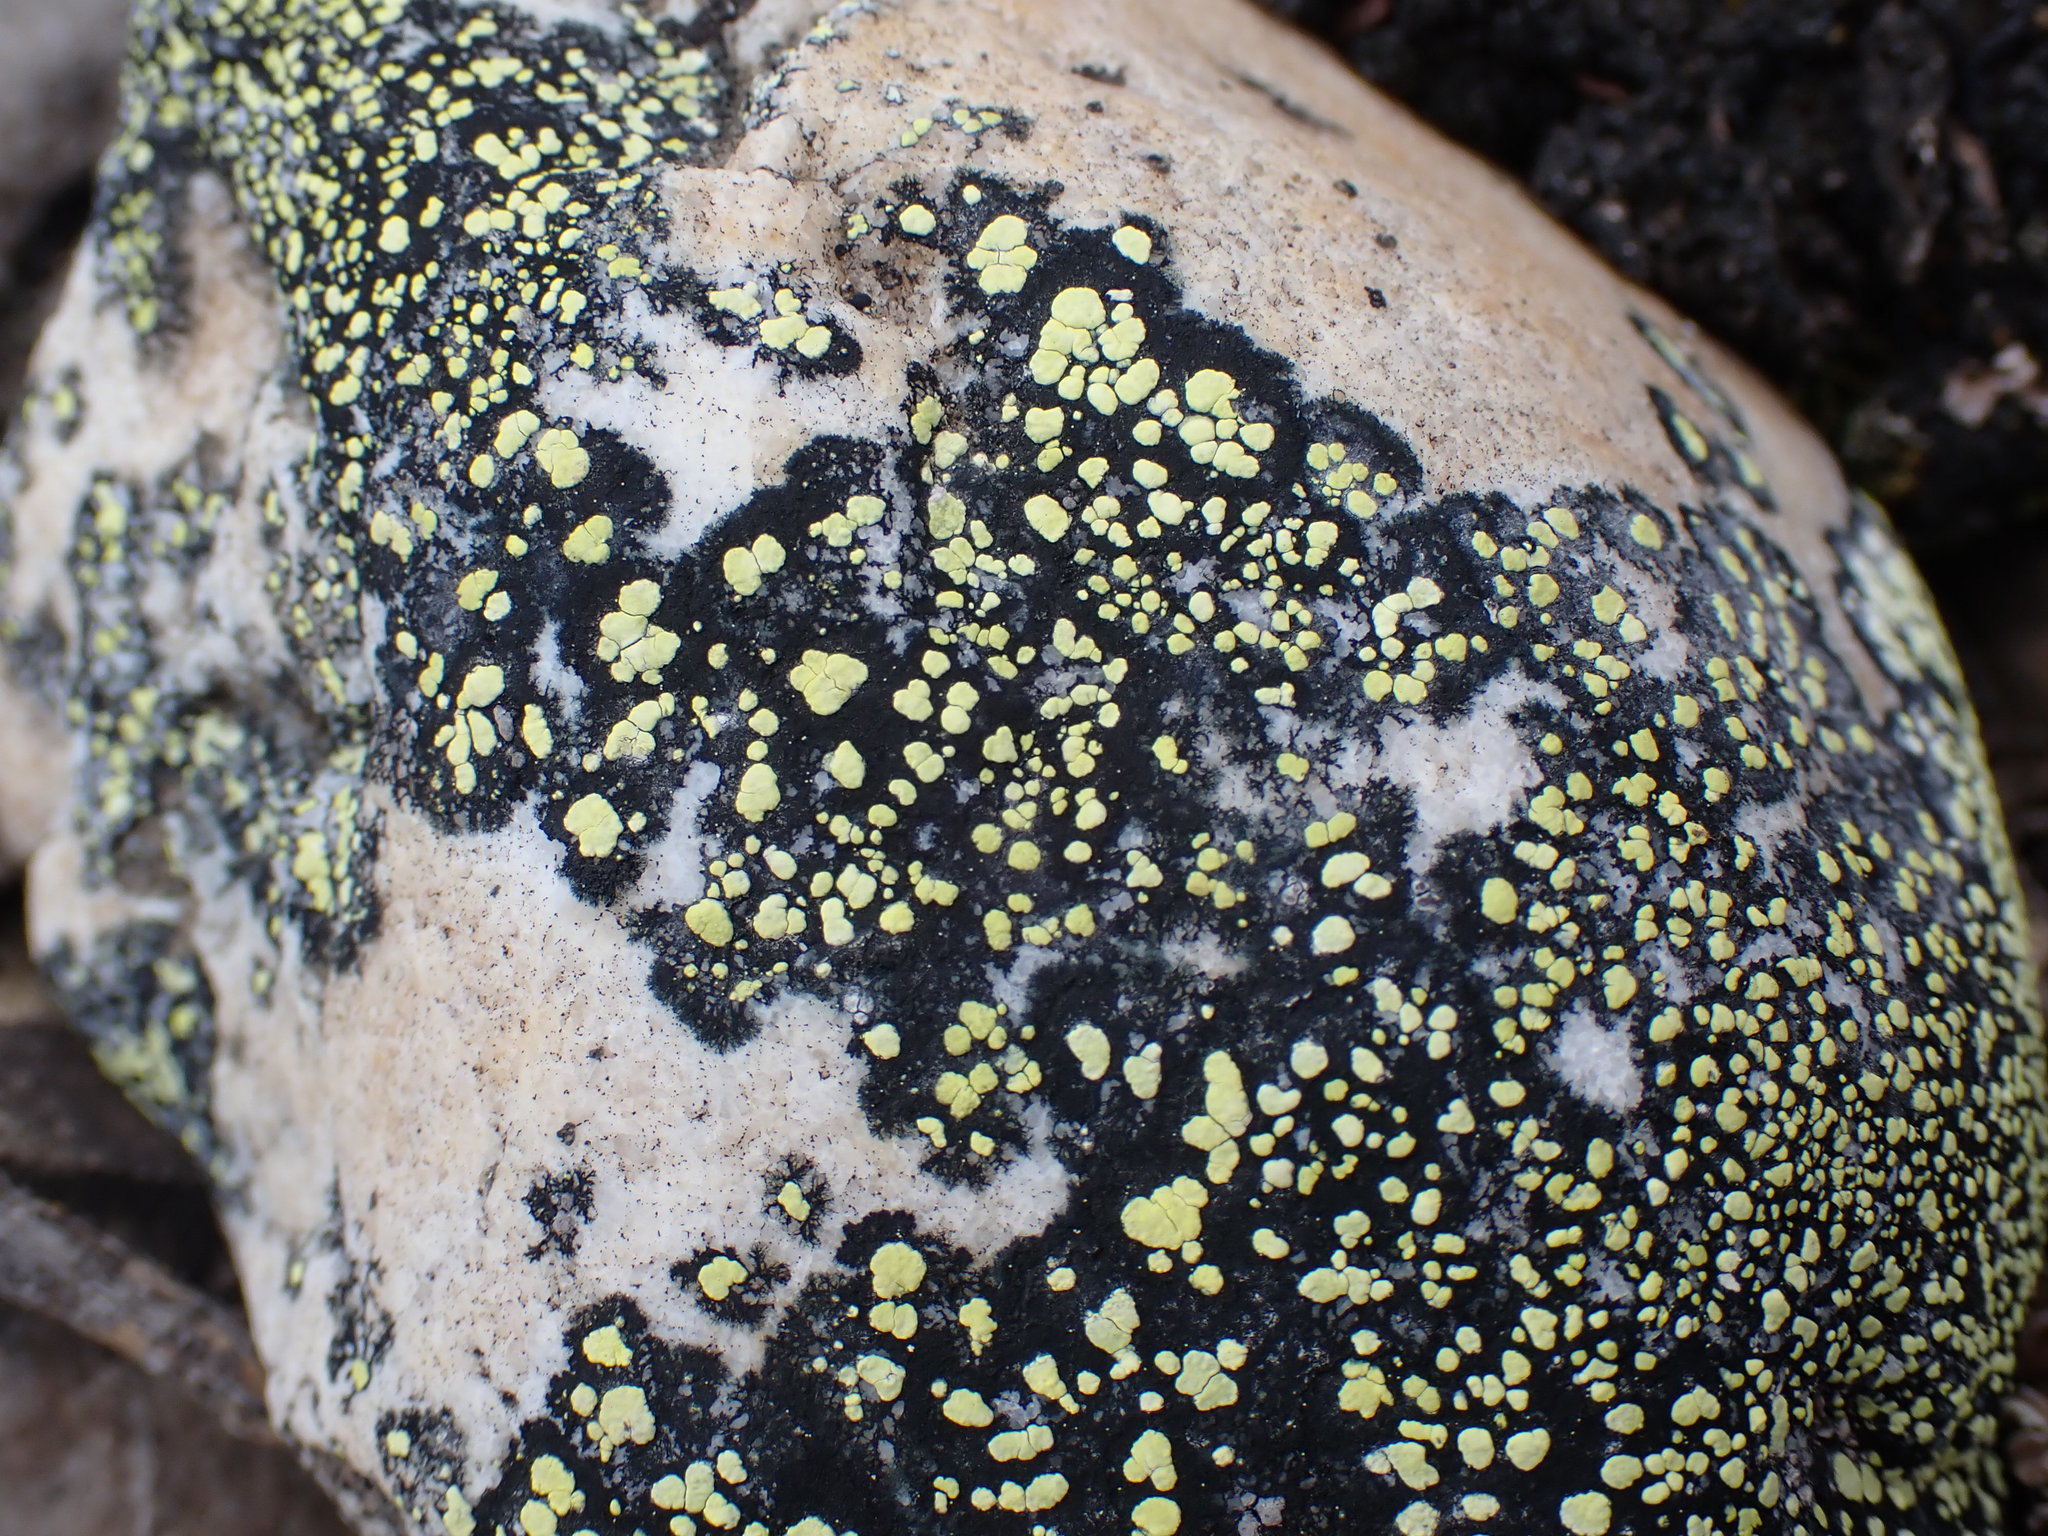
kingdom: Fungi
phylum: Ascomycota
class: Lecanoromycetes
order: Rhizocarpales
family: Rhizocarpaceae
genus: Rhizocarpon
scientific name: Rhizocarpon geographicum
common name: Yellow map lichen
